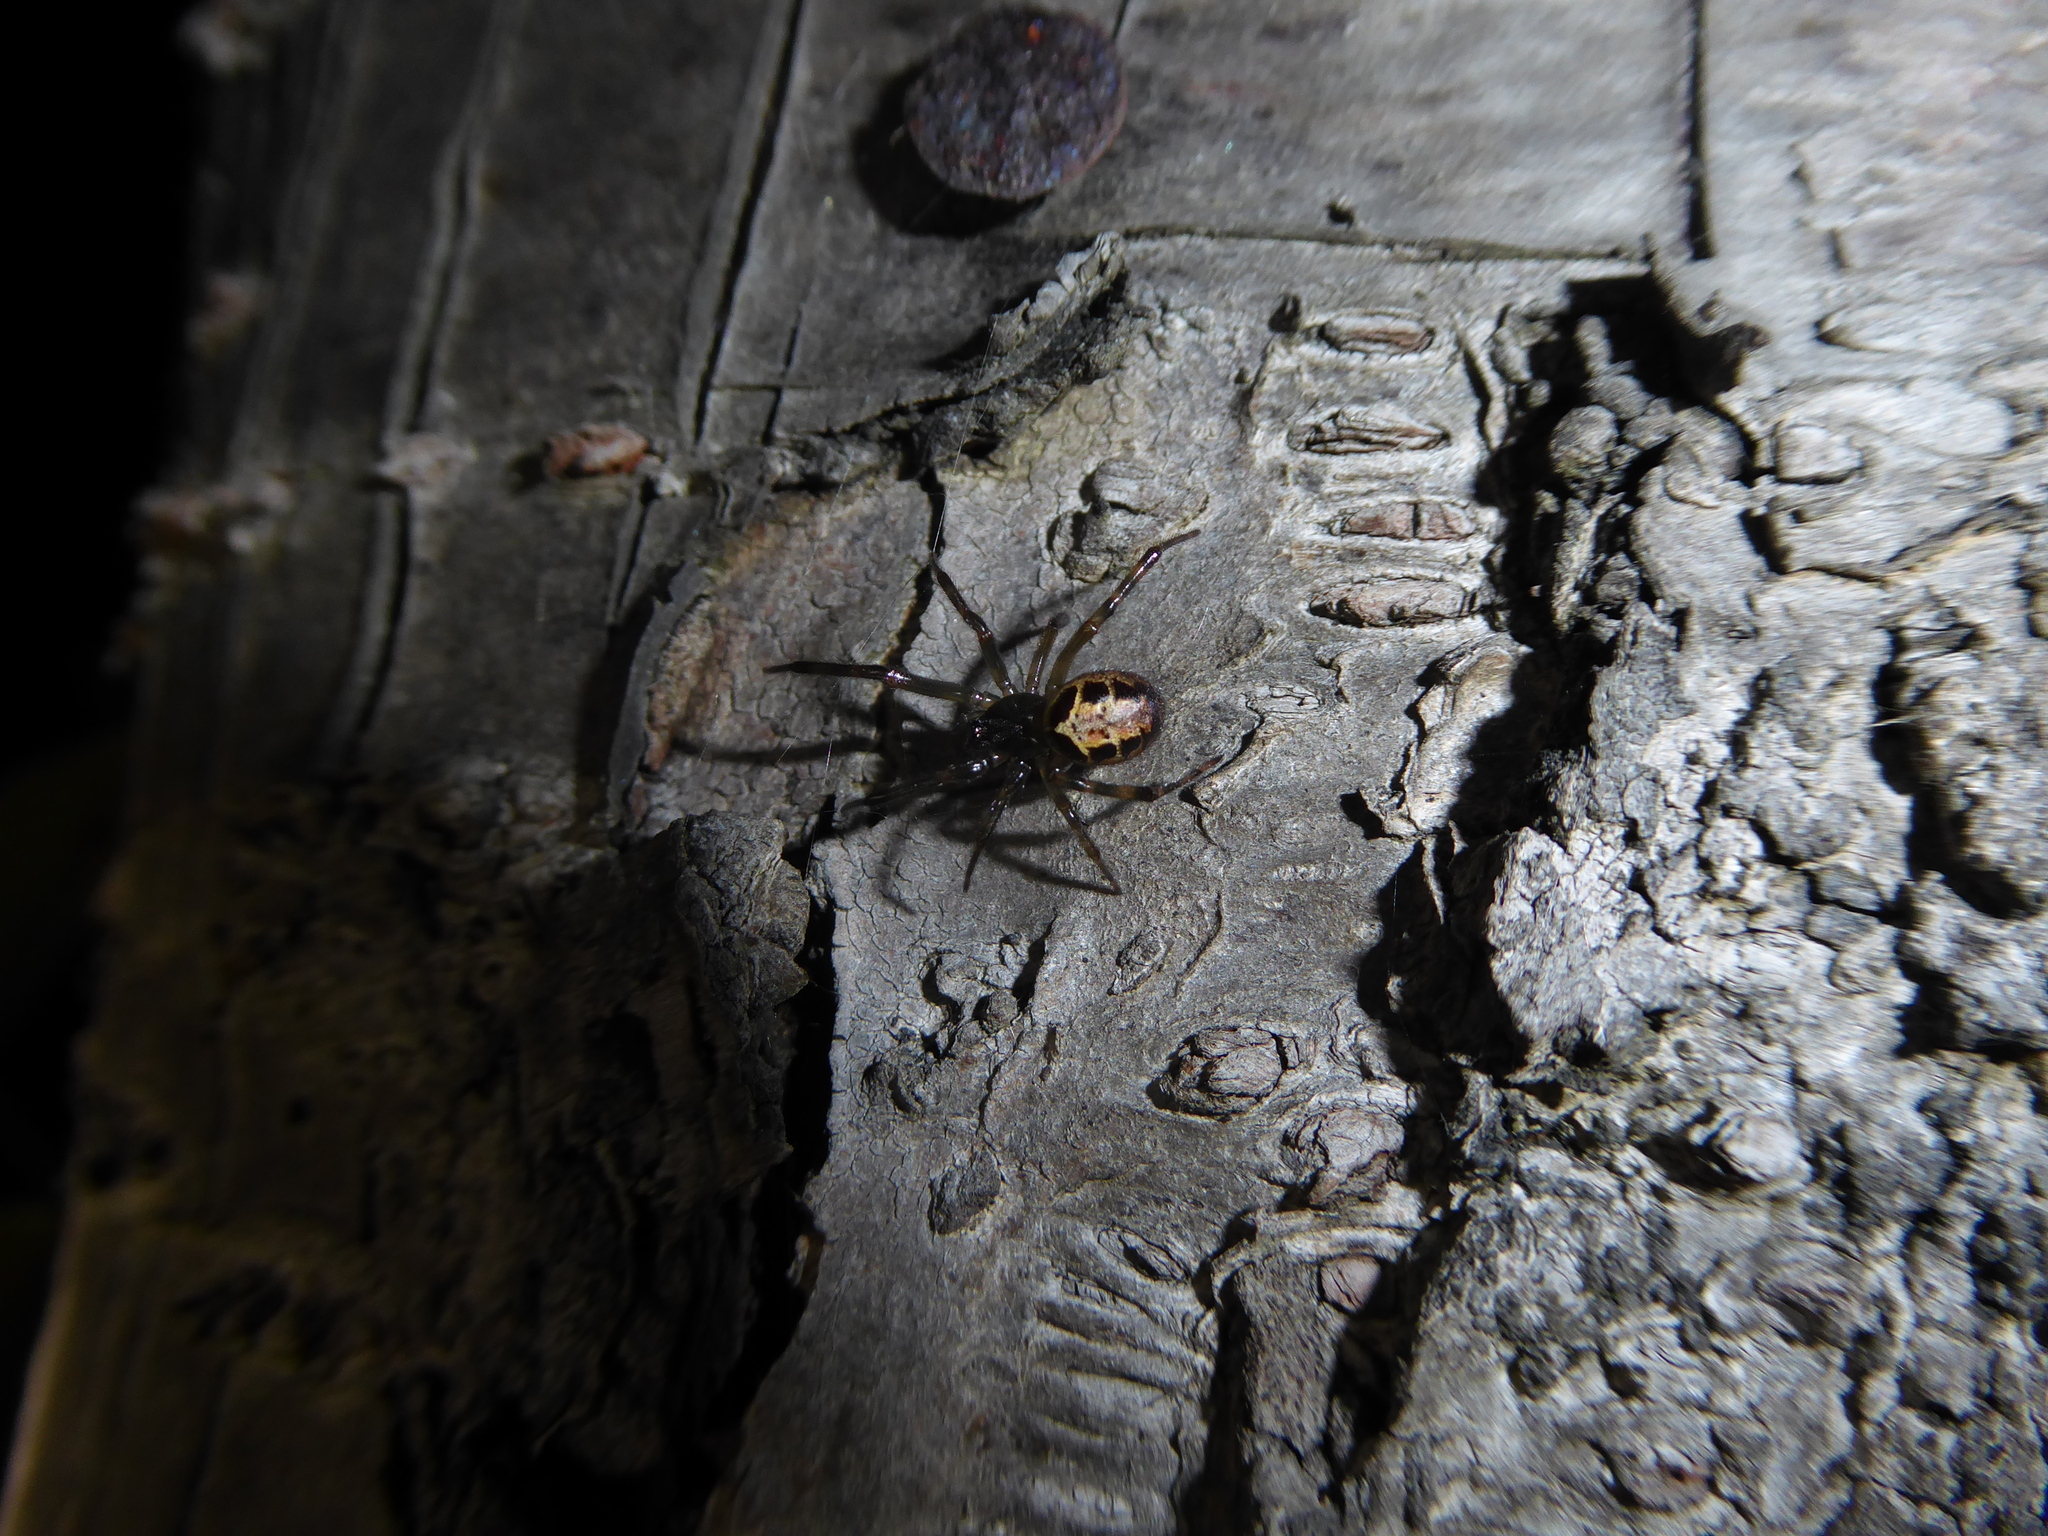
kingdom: Animalia
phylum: Arthropoda
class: Arachnida
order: Araneae
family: Theridiidae
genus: Steatoda
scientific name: Steatoda nobilis
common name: Cobweb weaver
